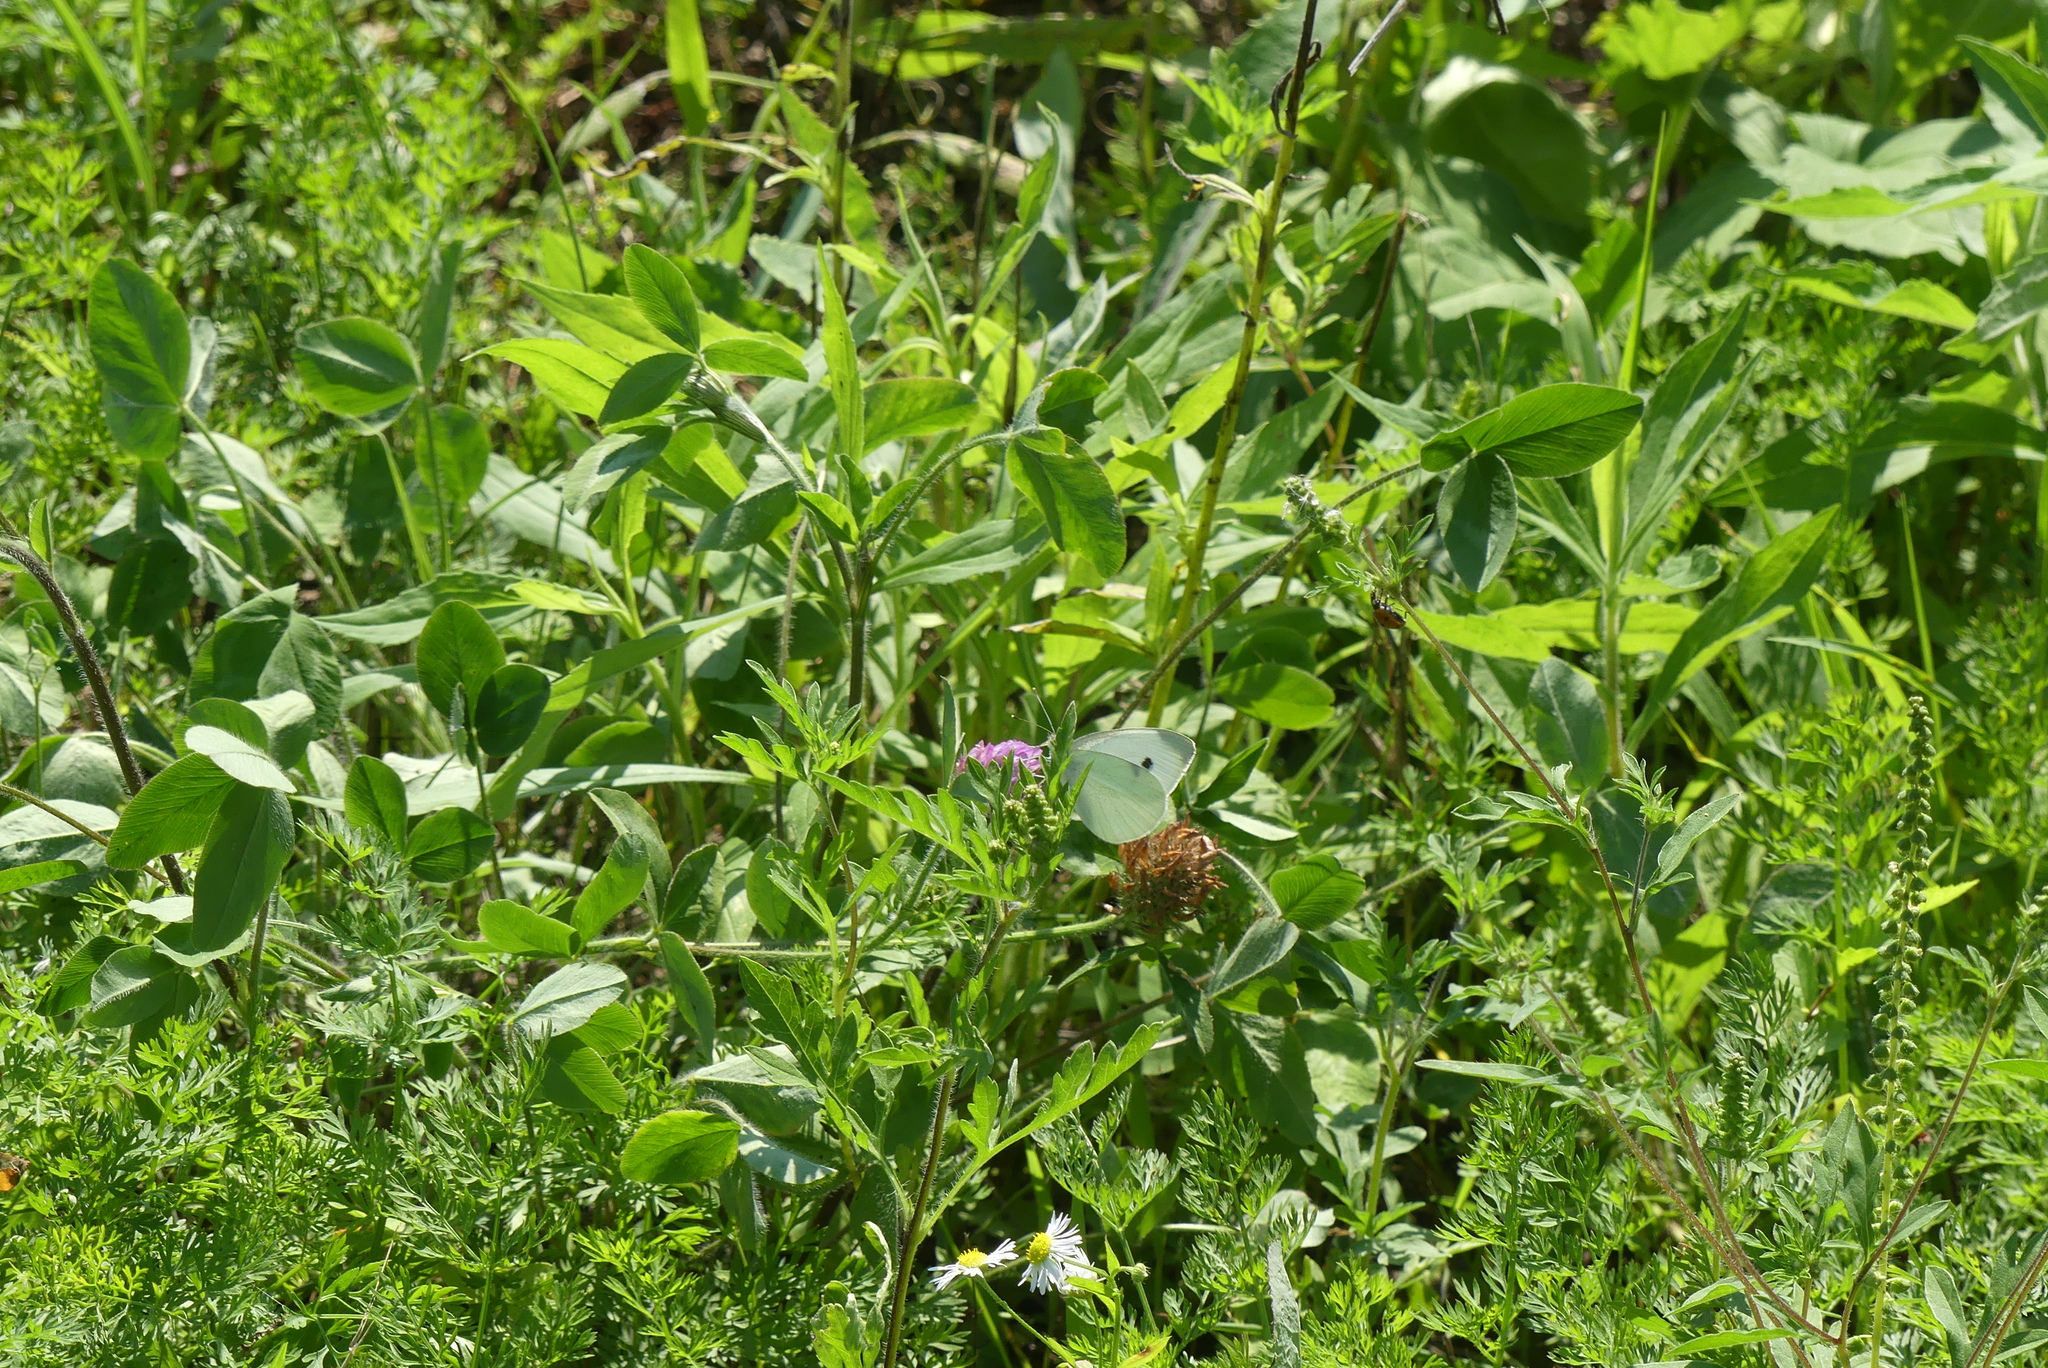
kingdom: Animalia
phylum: Arthropoda
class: Insecta
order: Lepidoptera
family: Pieridae
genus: Pieris
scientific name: Pieris rapae
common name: Small white
